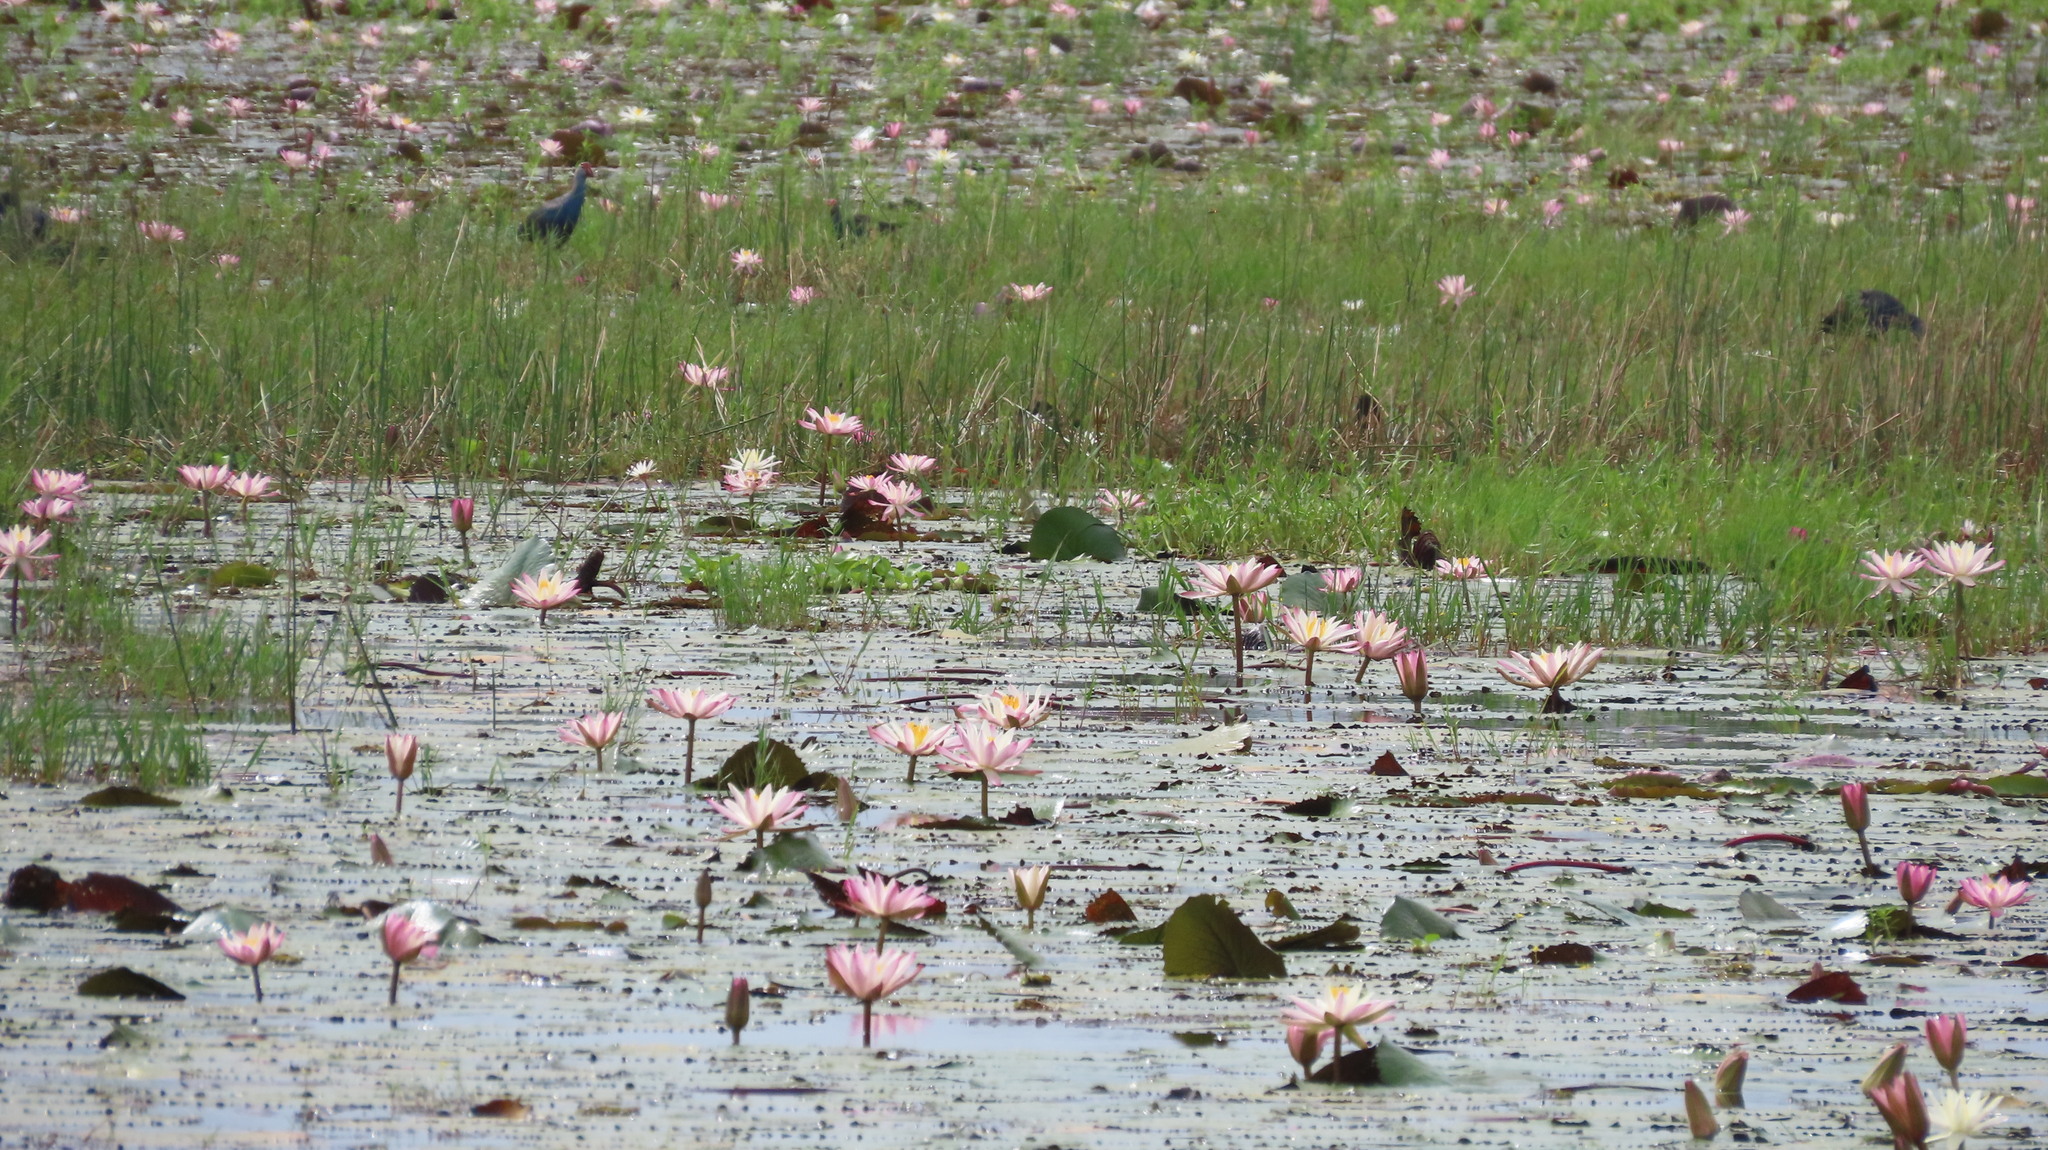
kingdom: Animalia
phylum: Chordata
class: Aves
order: Gruiformes
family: Rallidae
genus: Porphyrio
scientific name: Porphyrio porphyrio
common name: Purple swamphen
